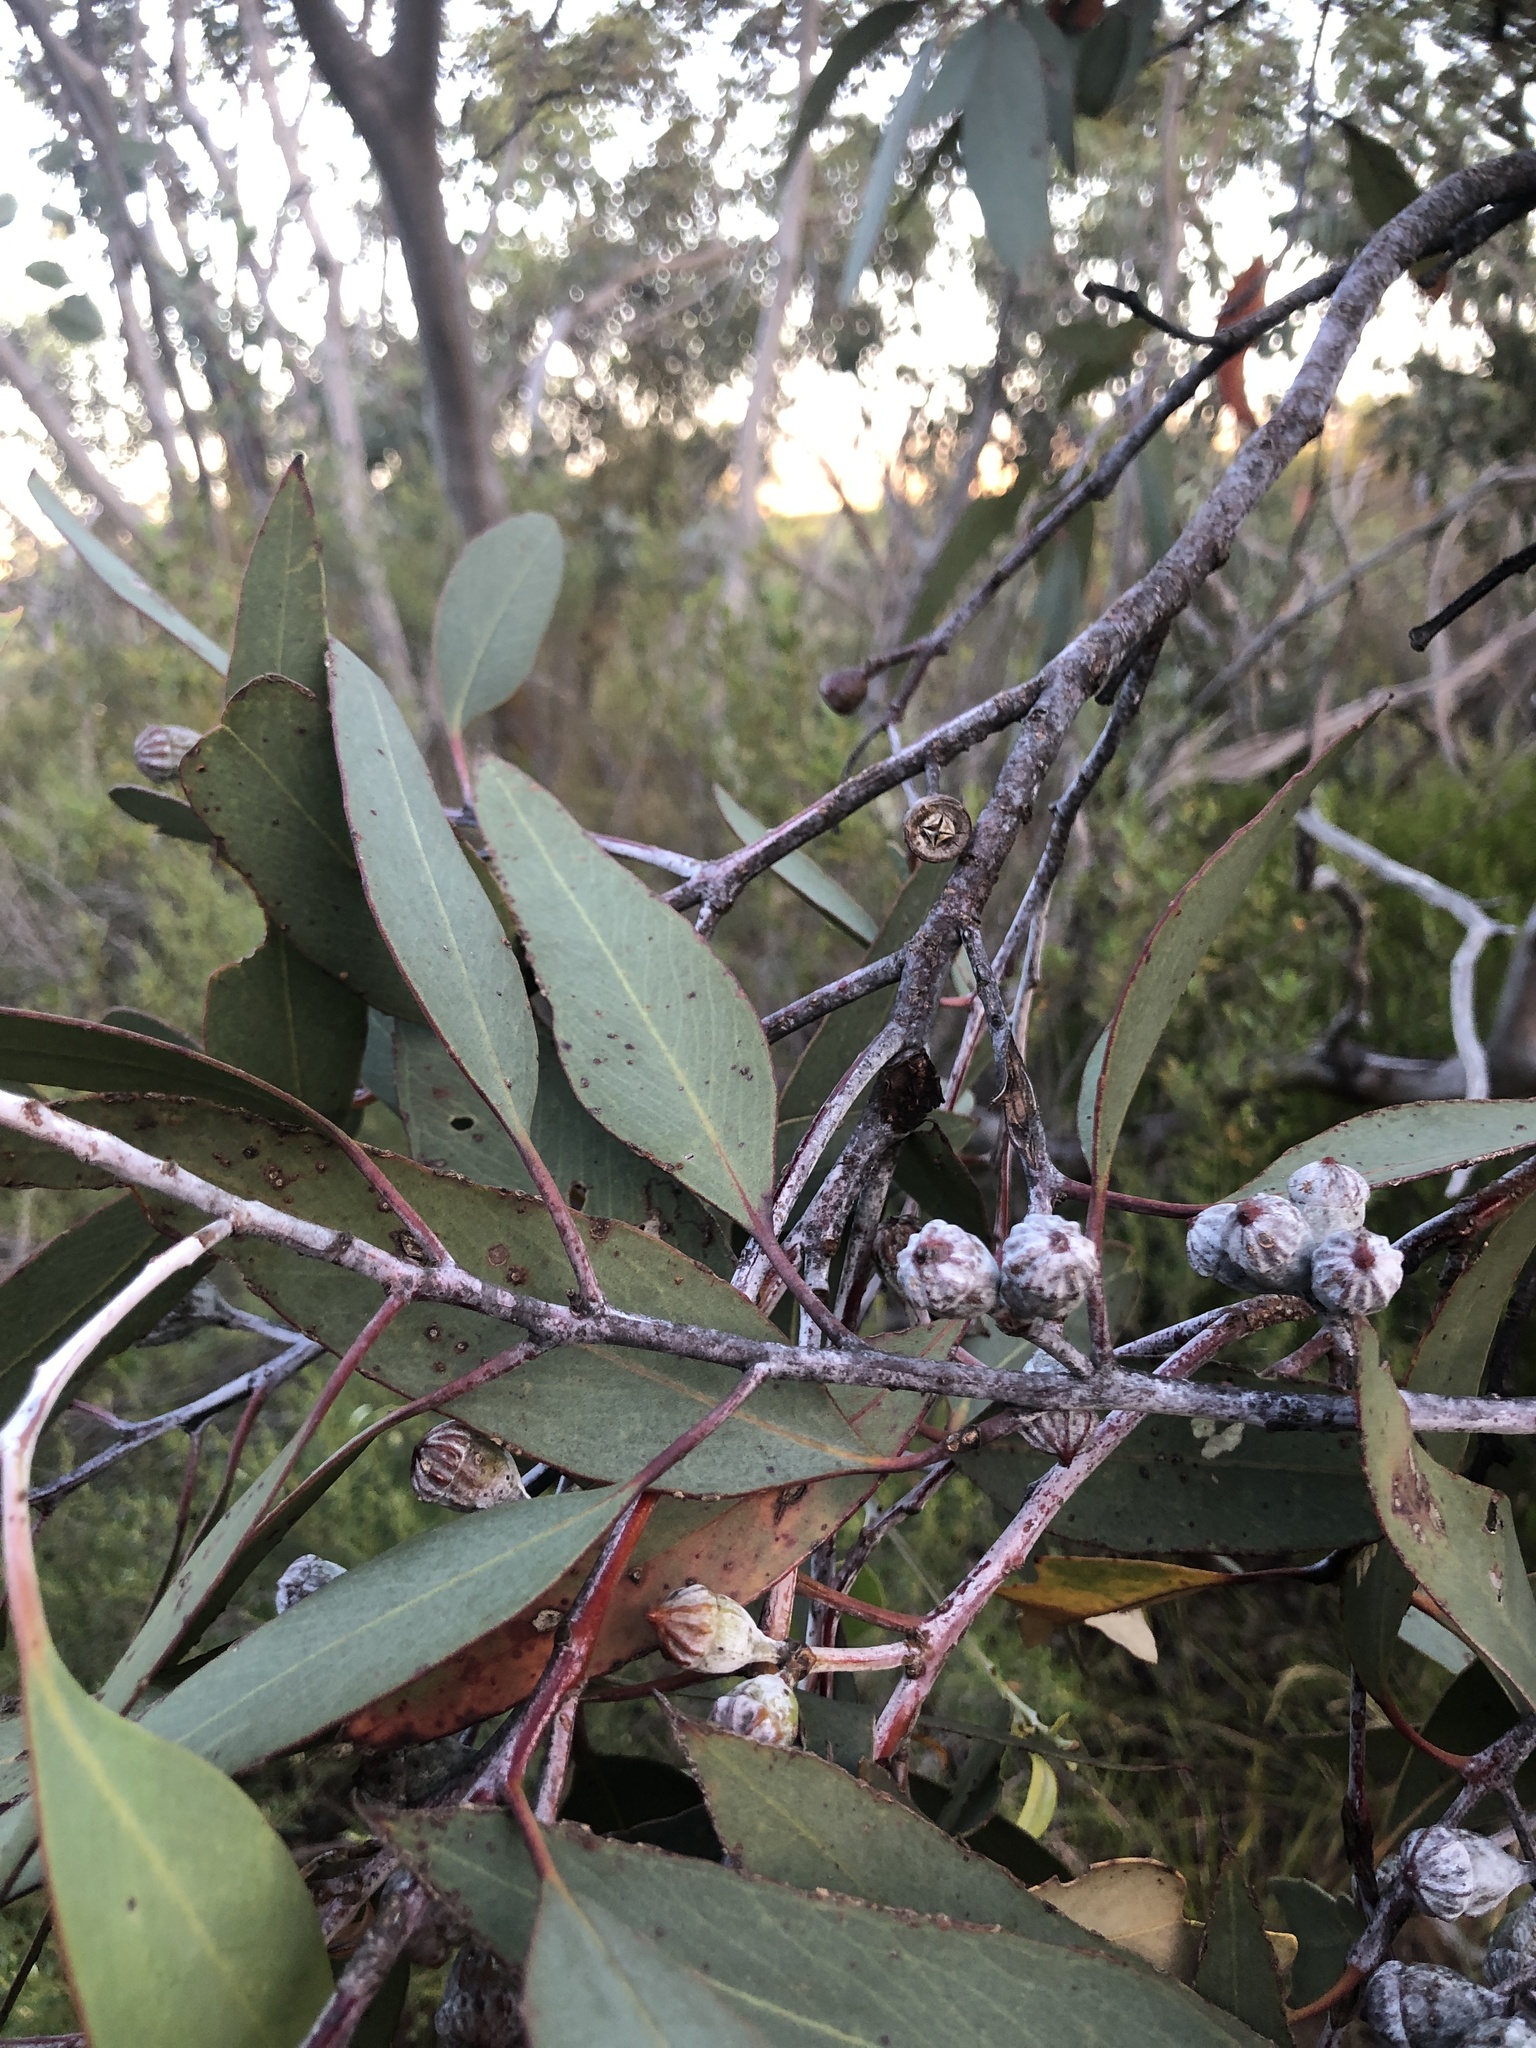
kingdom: Plantae
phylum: Tracheophyta
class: Magnoliopsida
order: Myrtales
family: Myrtaceae
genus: Eucalyptus
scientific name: Eucalyptus cretata
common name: Darke peak mallee
